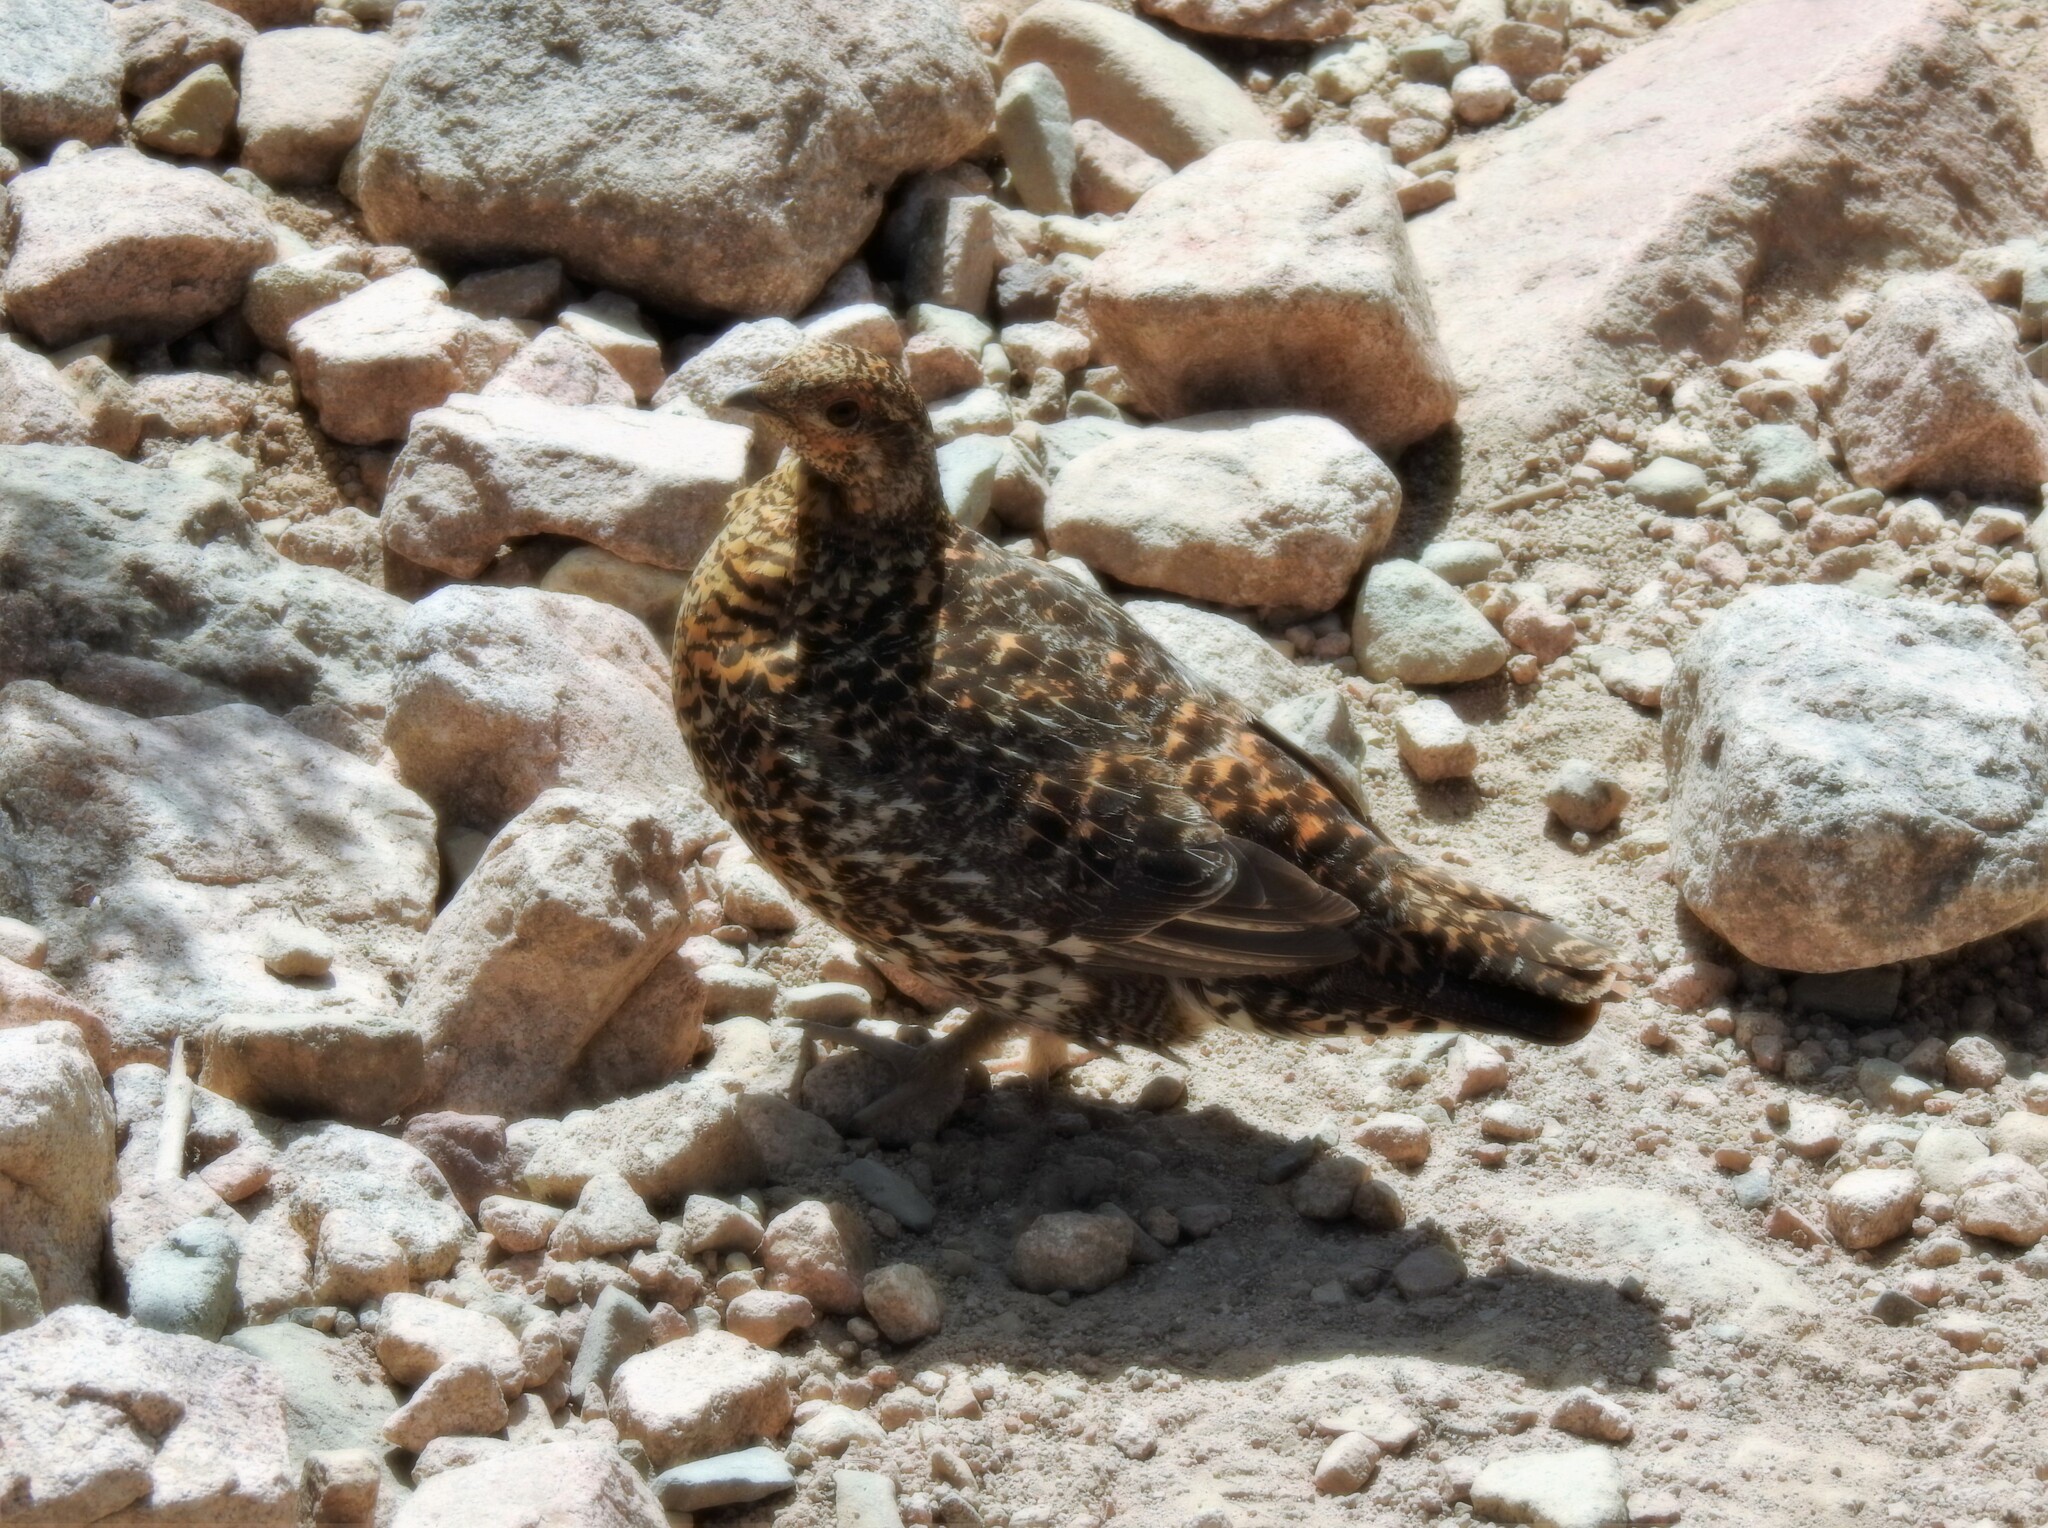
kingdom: Animalia
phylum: Chordata
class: Aves
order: Galliformes
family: Phasianidae
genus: Canachites
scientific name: Canachites canadensis
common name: Spruce grouse
